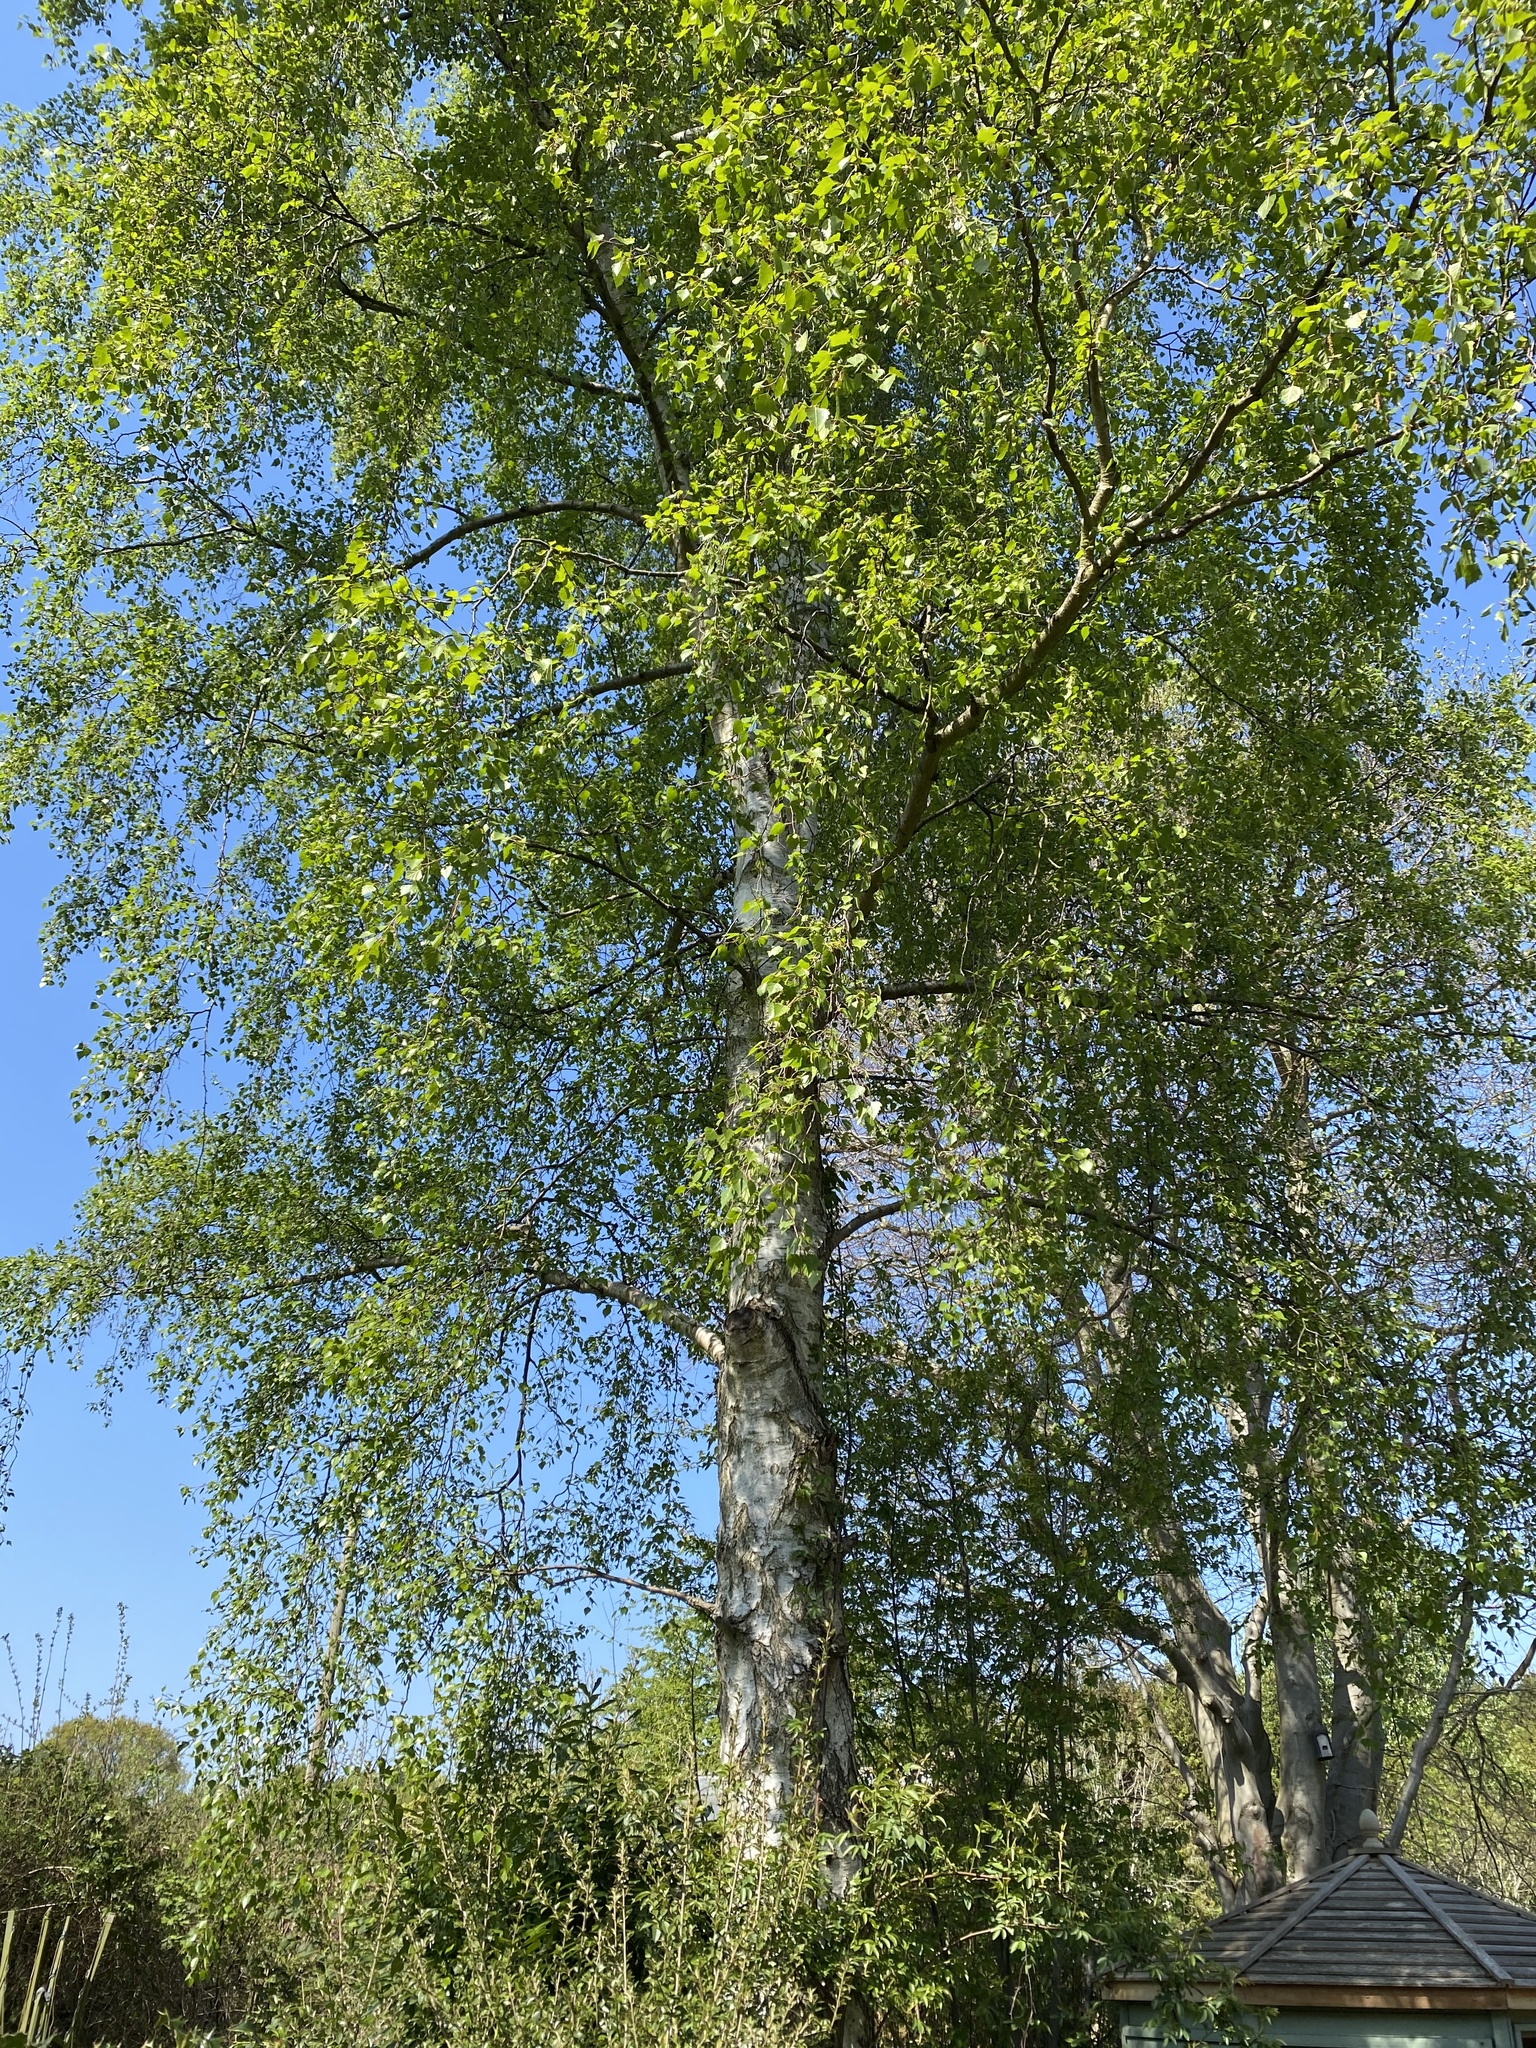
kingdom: Plantae
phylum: Tracheophyta
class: Magnoliopsida
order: Fagales
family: Betulaceae
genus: Betula
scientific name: Betula pendula
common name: Silver birch
